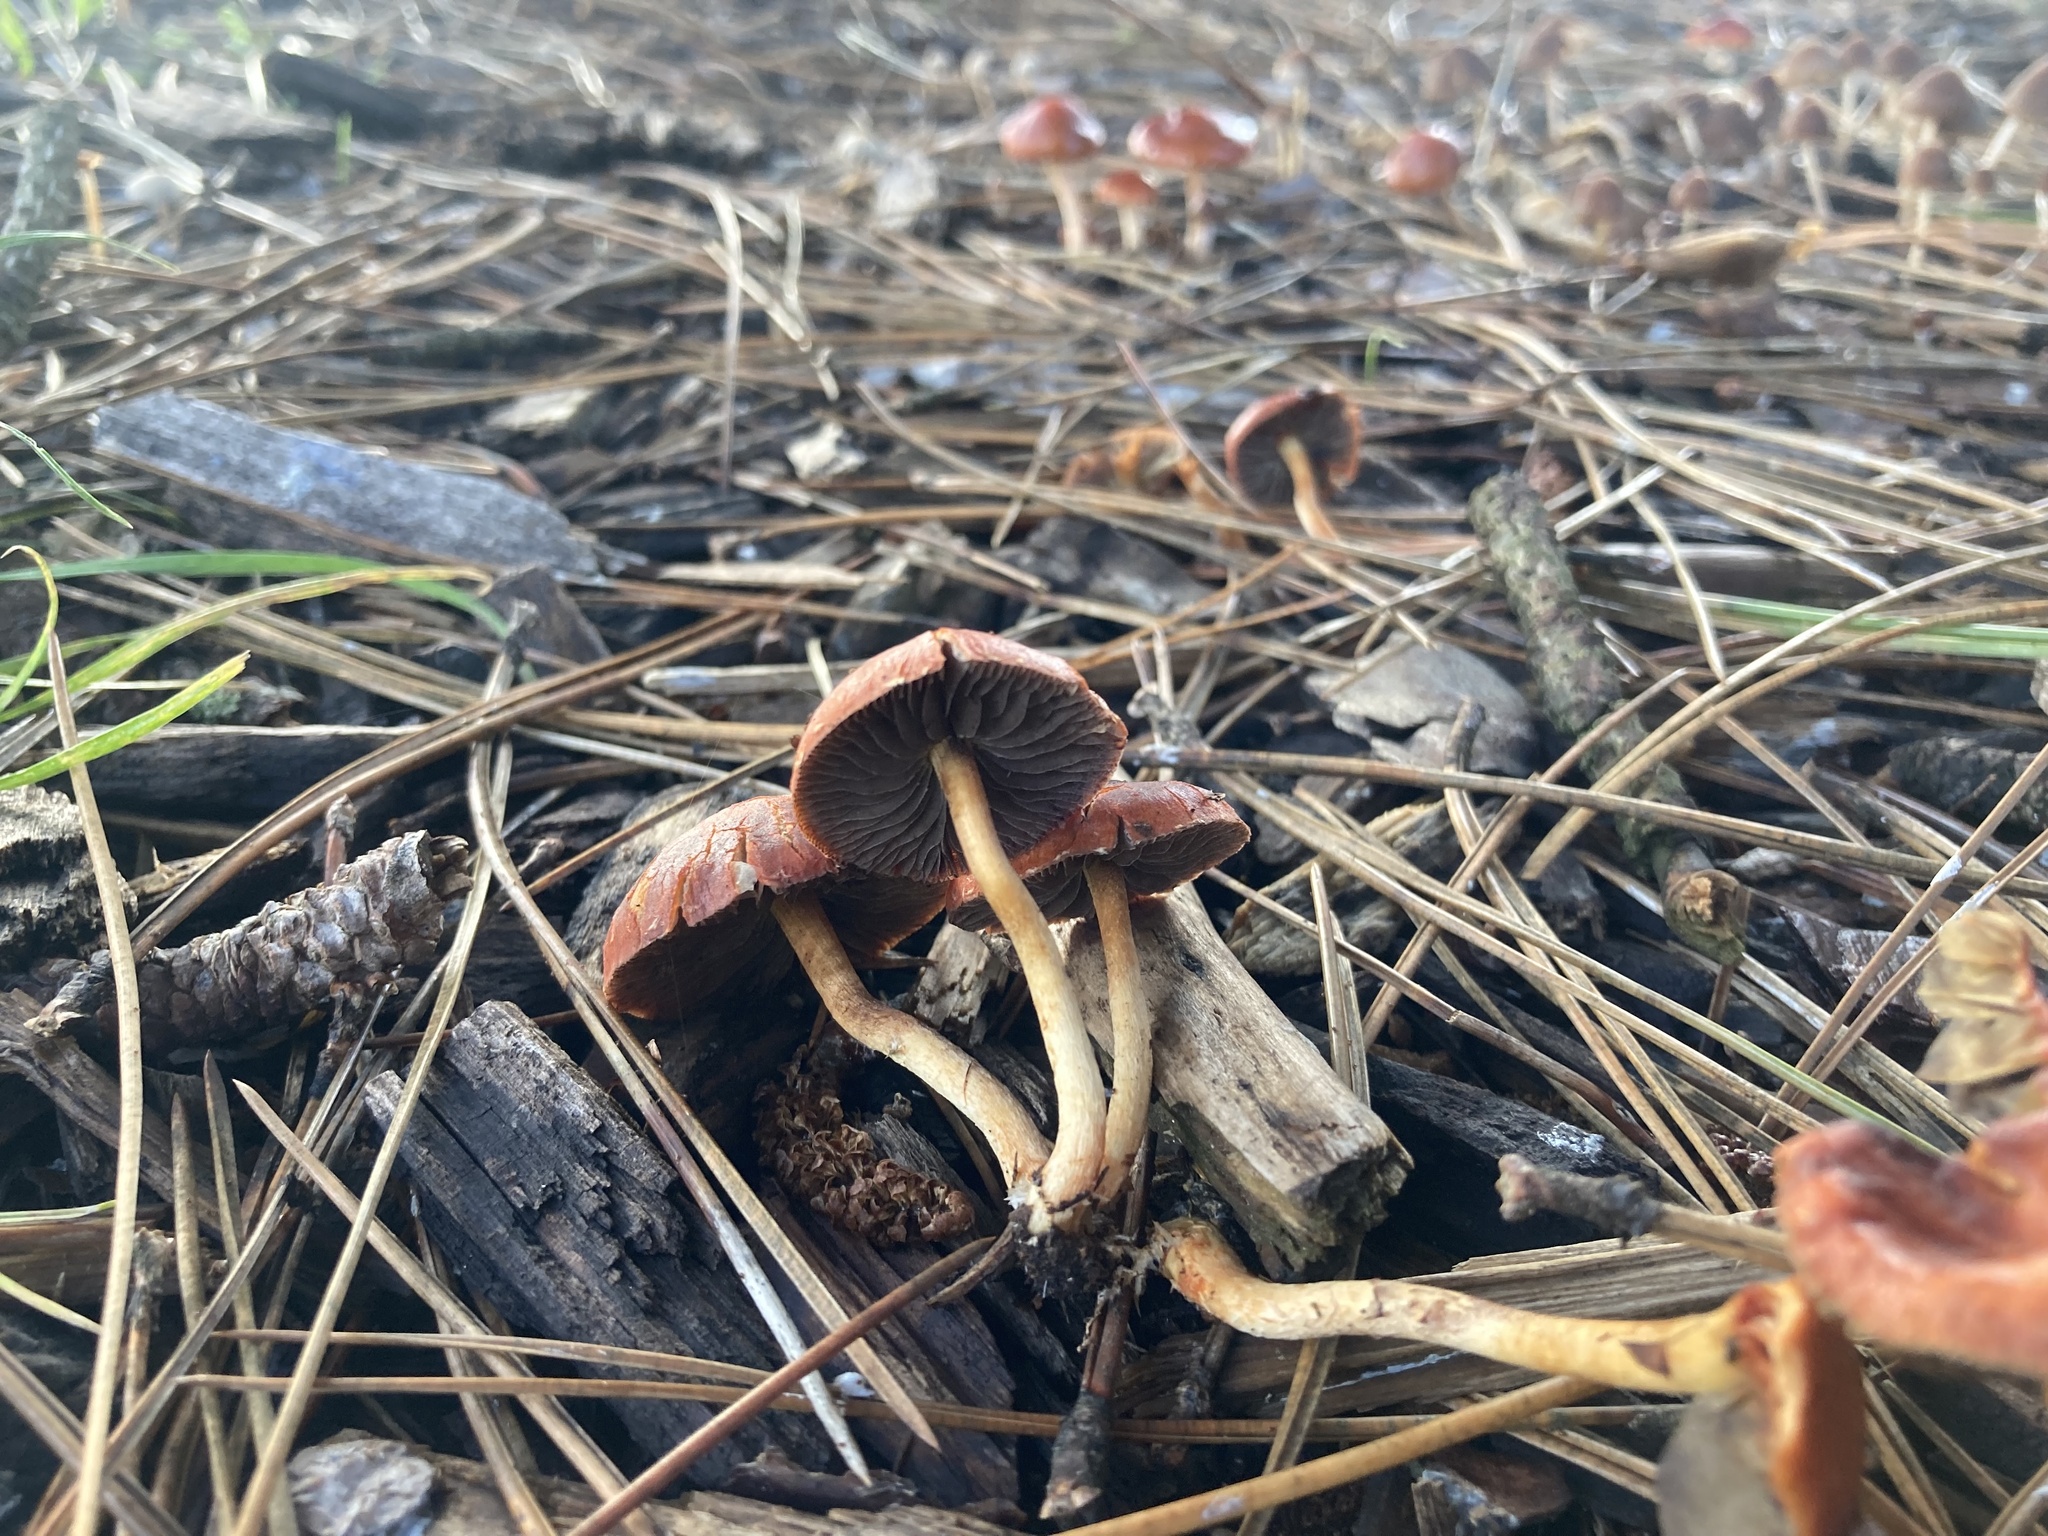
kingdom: Fungi
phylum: Basidiomycota
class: Agaricomycetes
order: Agaricales
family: Strophariaceae
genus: Leratiomyces
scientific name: Leratiomyces ceres
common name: Redlead roundhead
